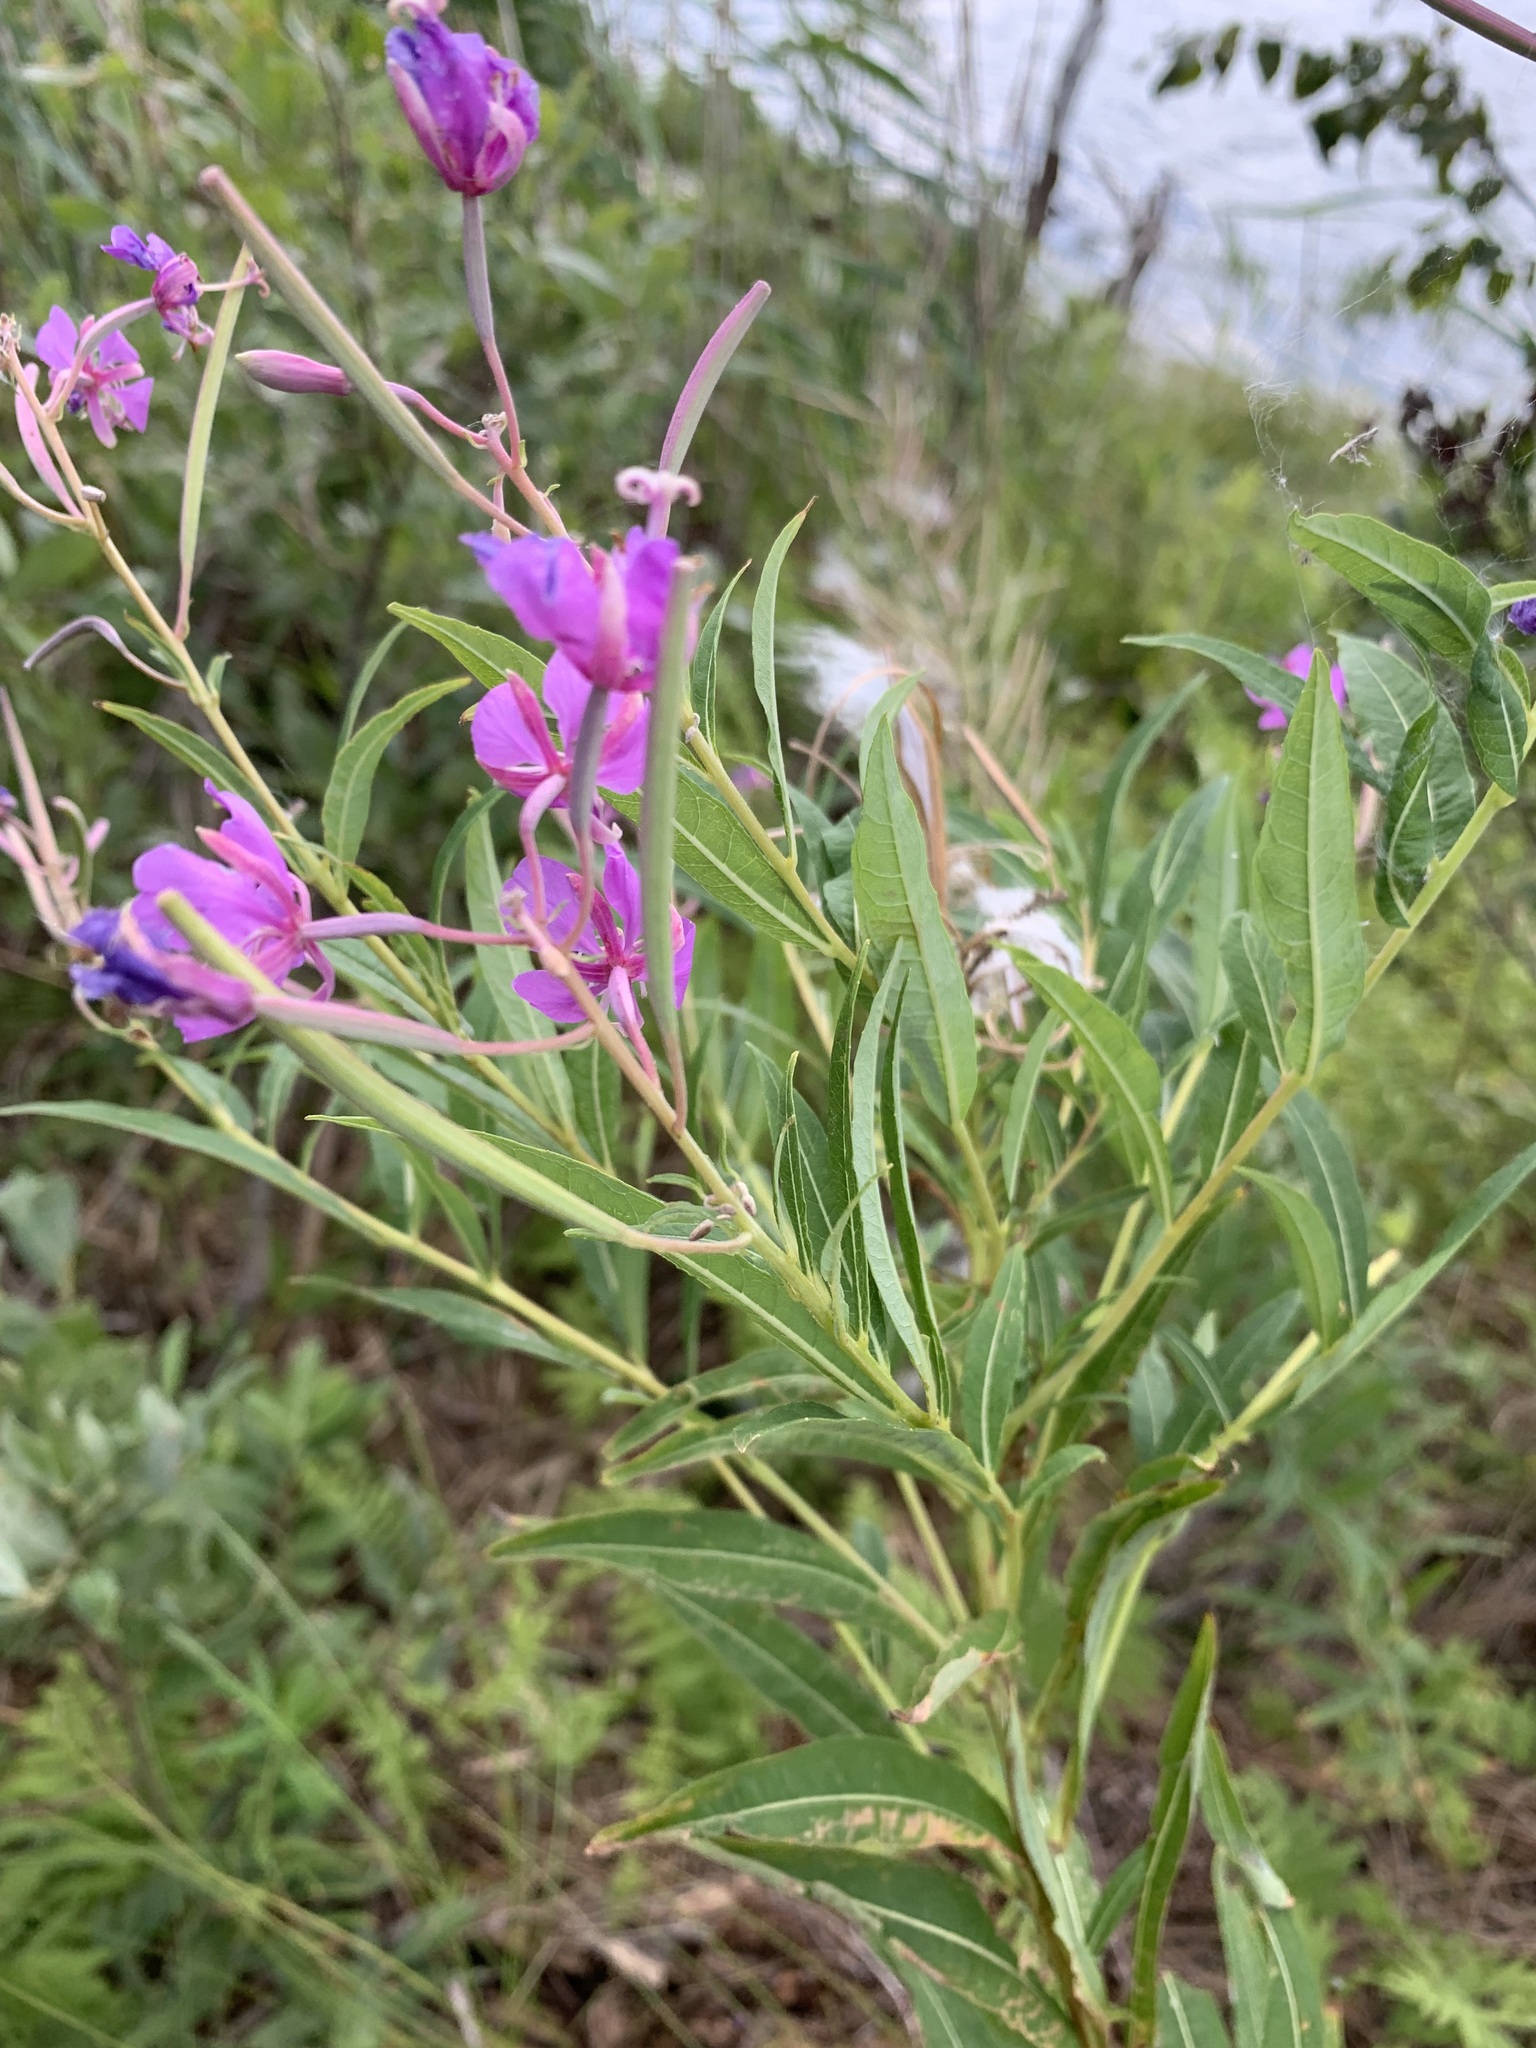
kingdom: Plantae
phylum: Tracheophyta
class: Magnoliopsida
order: Myrtales
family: Onagraceae
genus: Chamaenerion
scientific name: Chamaenerion angustifolium
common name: Fireweed
